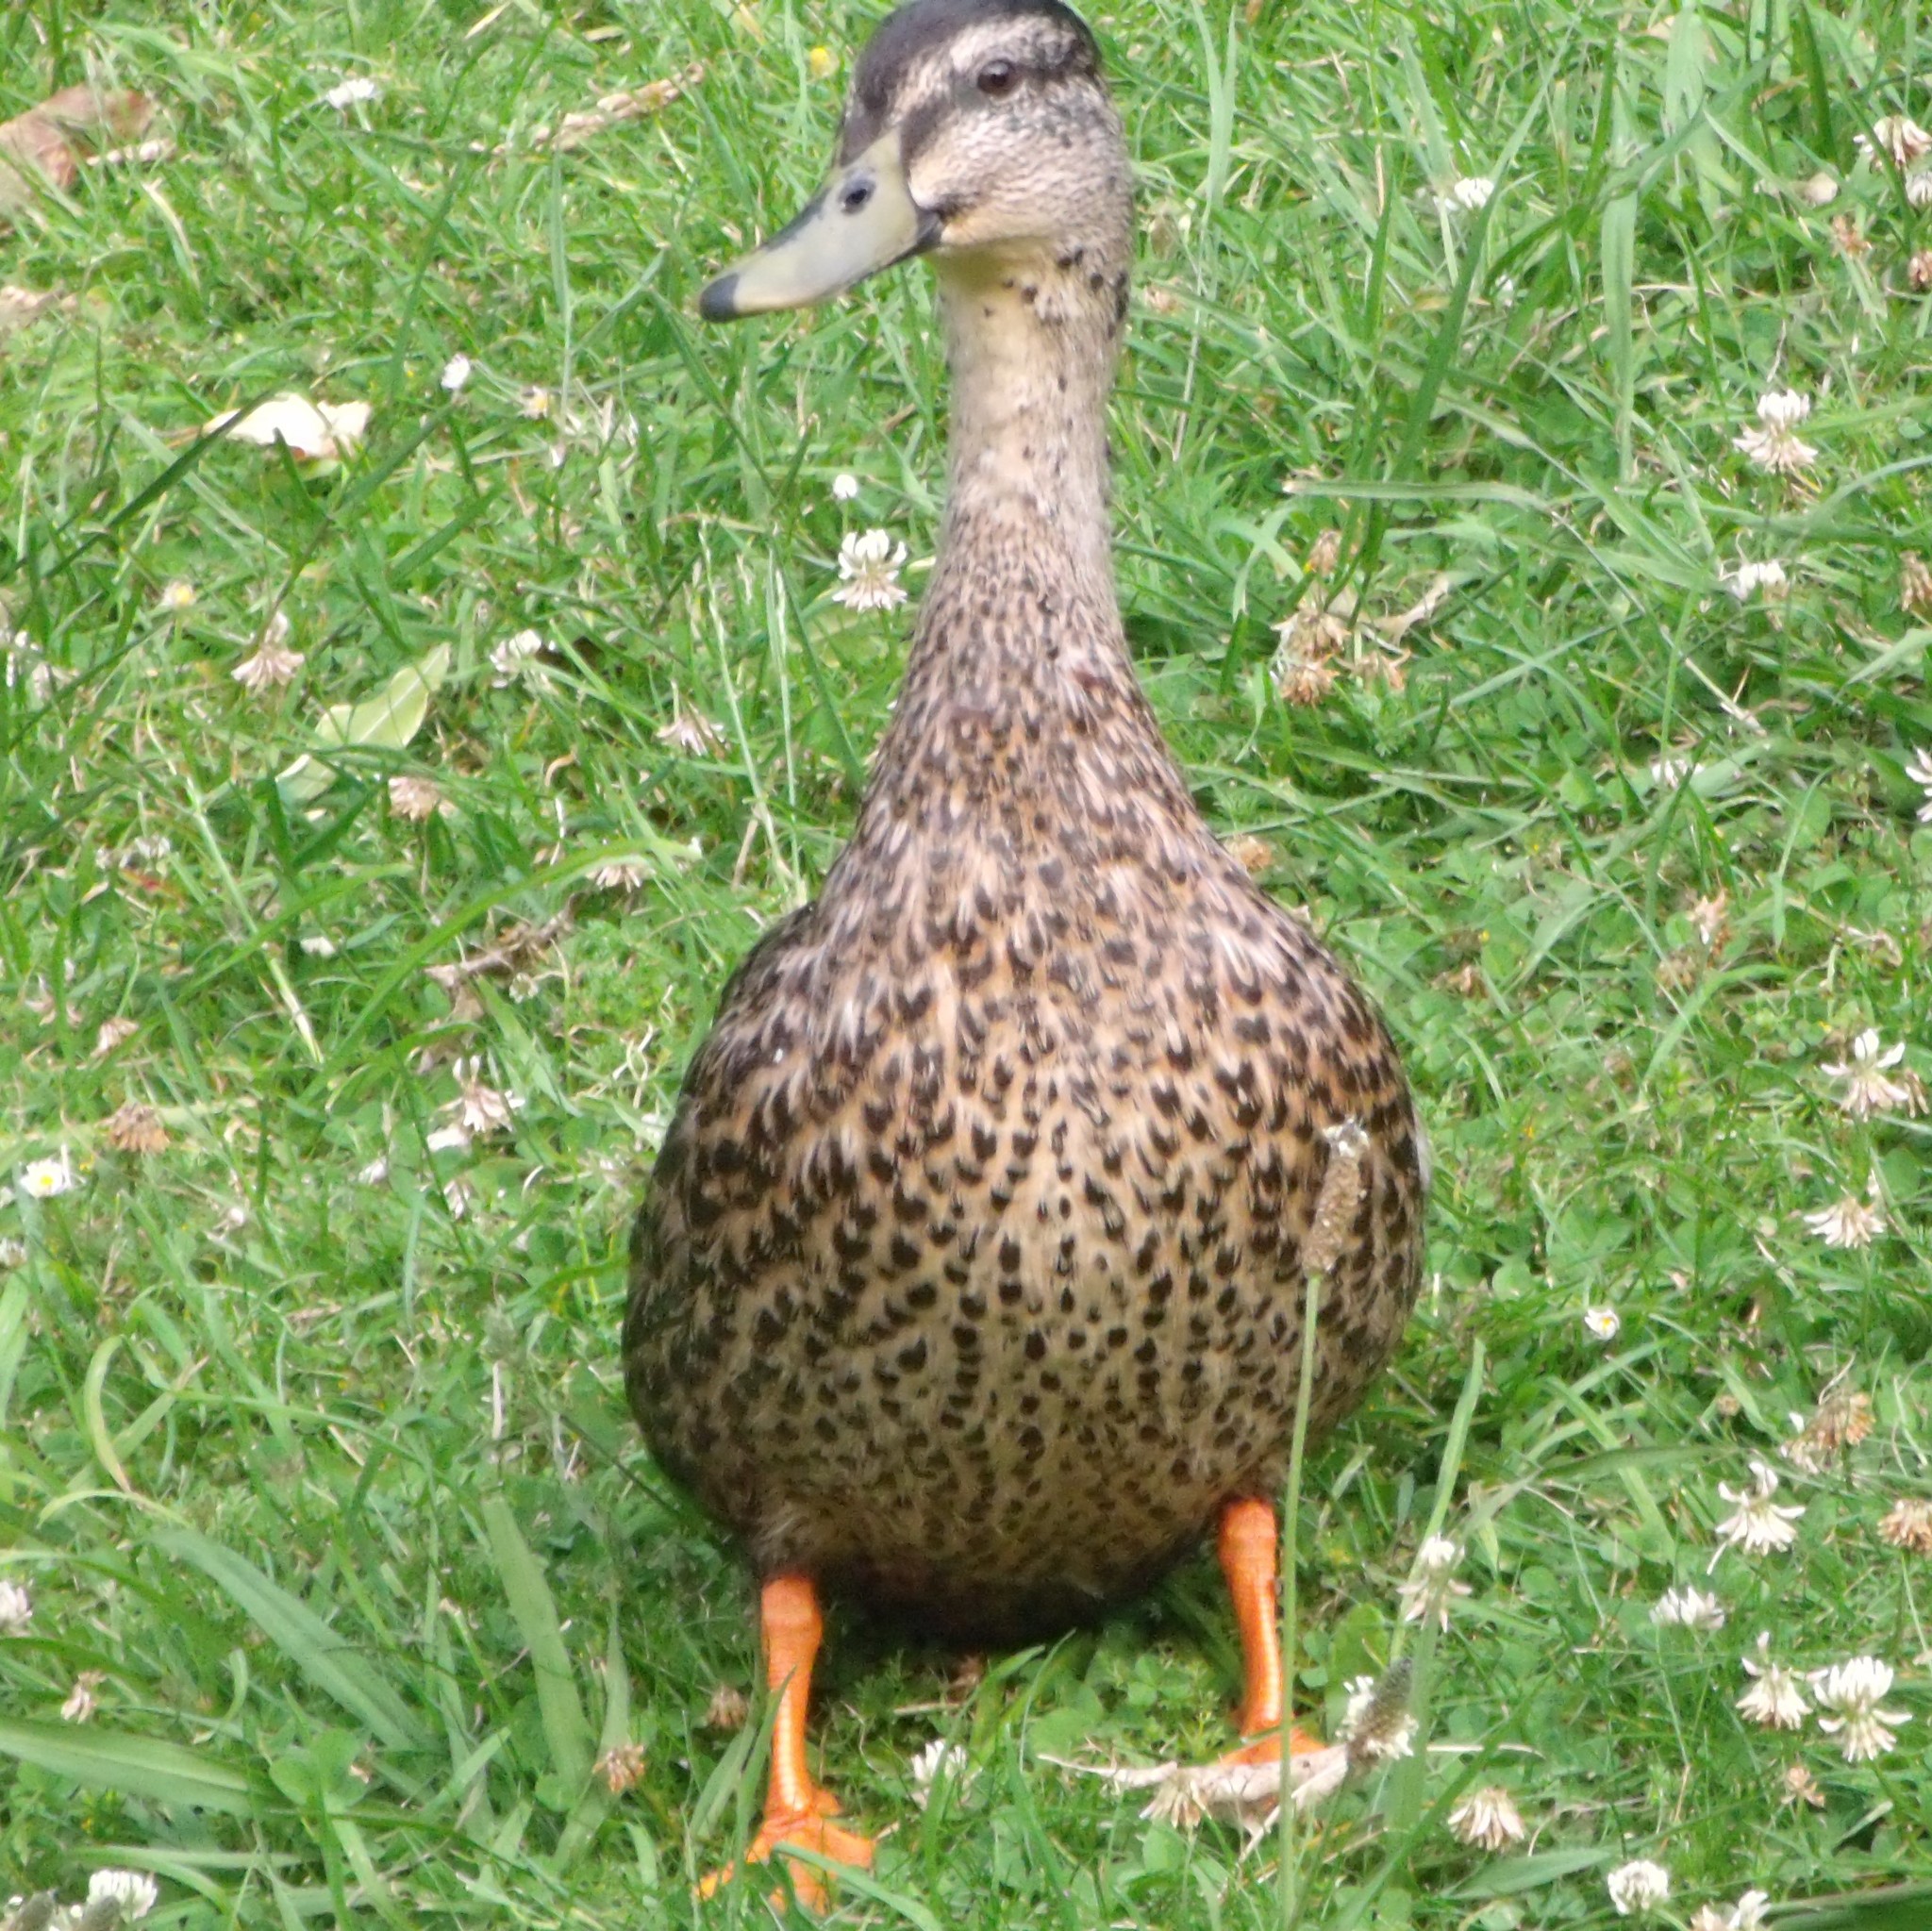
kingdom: Animalia
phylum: Chordata
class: Aves
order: Anseriformes
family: Anatidae
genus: Anas
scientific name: Anas
